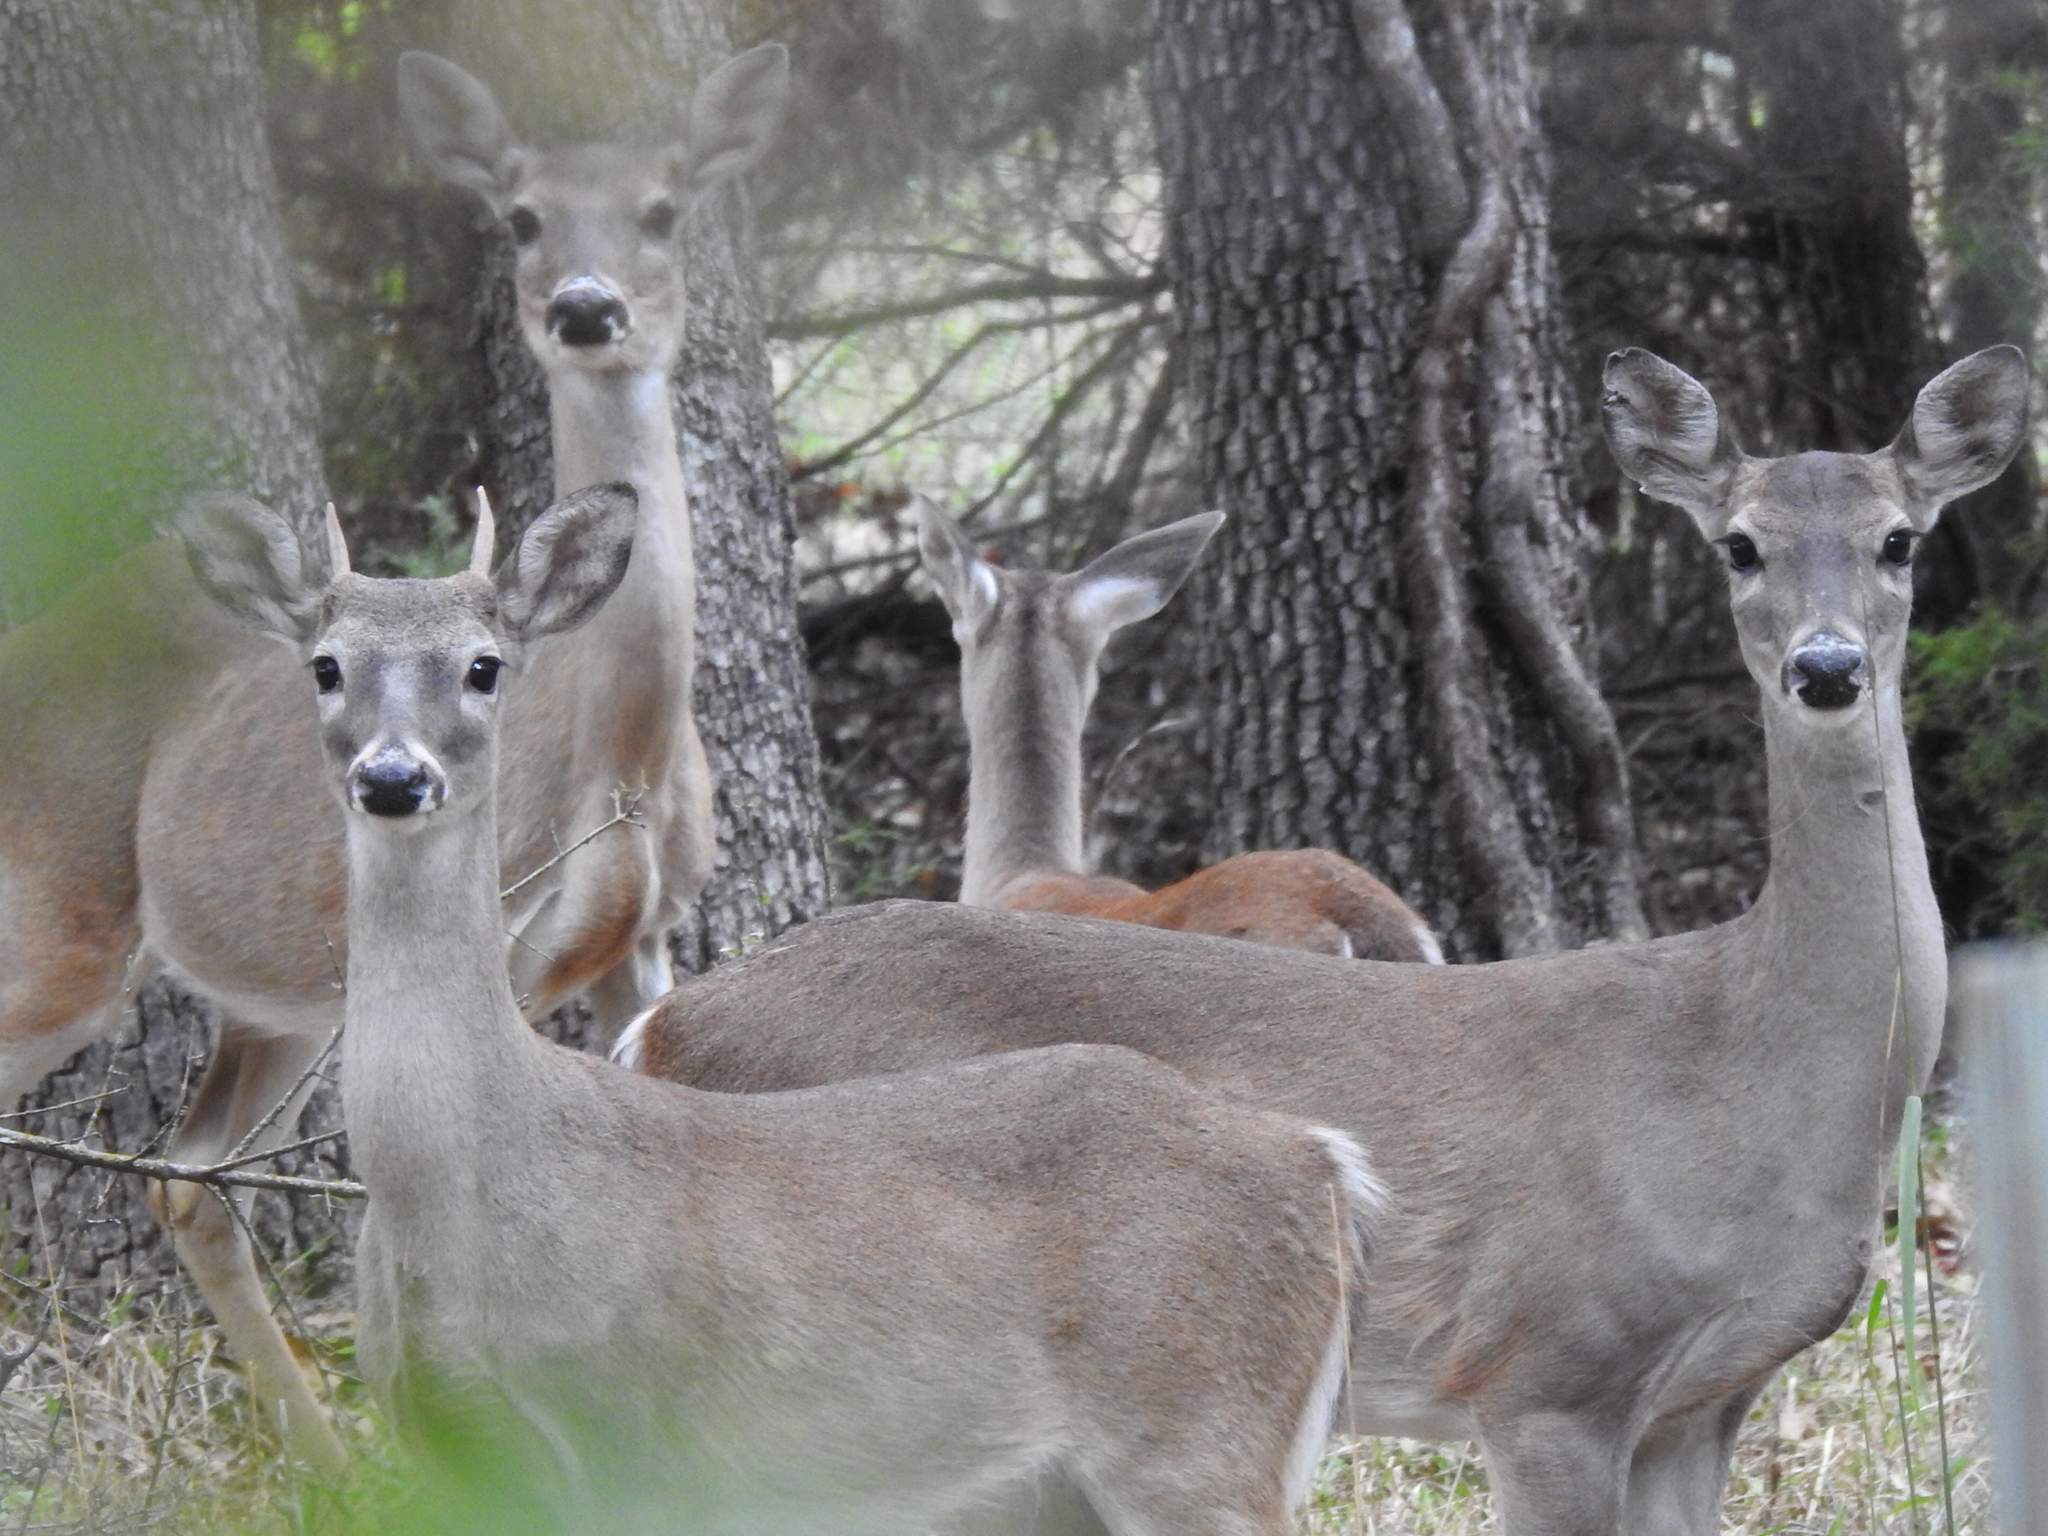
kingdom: Animalia
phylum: Chordata
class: Mammalia
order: Artiodactyla
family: Cervidae
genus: Odocoileus
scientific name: Odocoileus virginianus
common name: White-tailed deer
